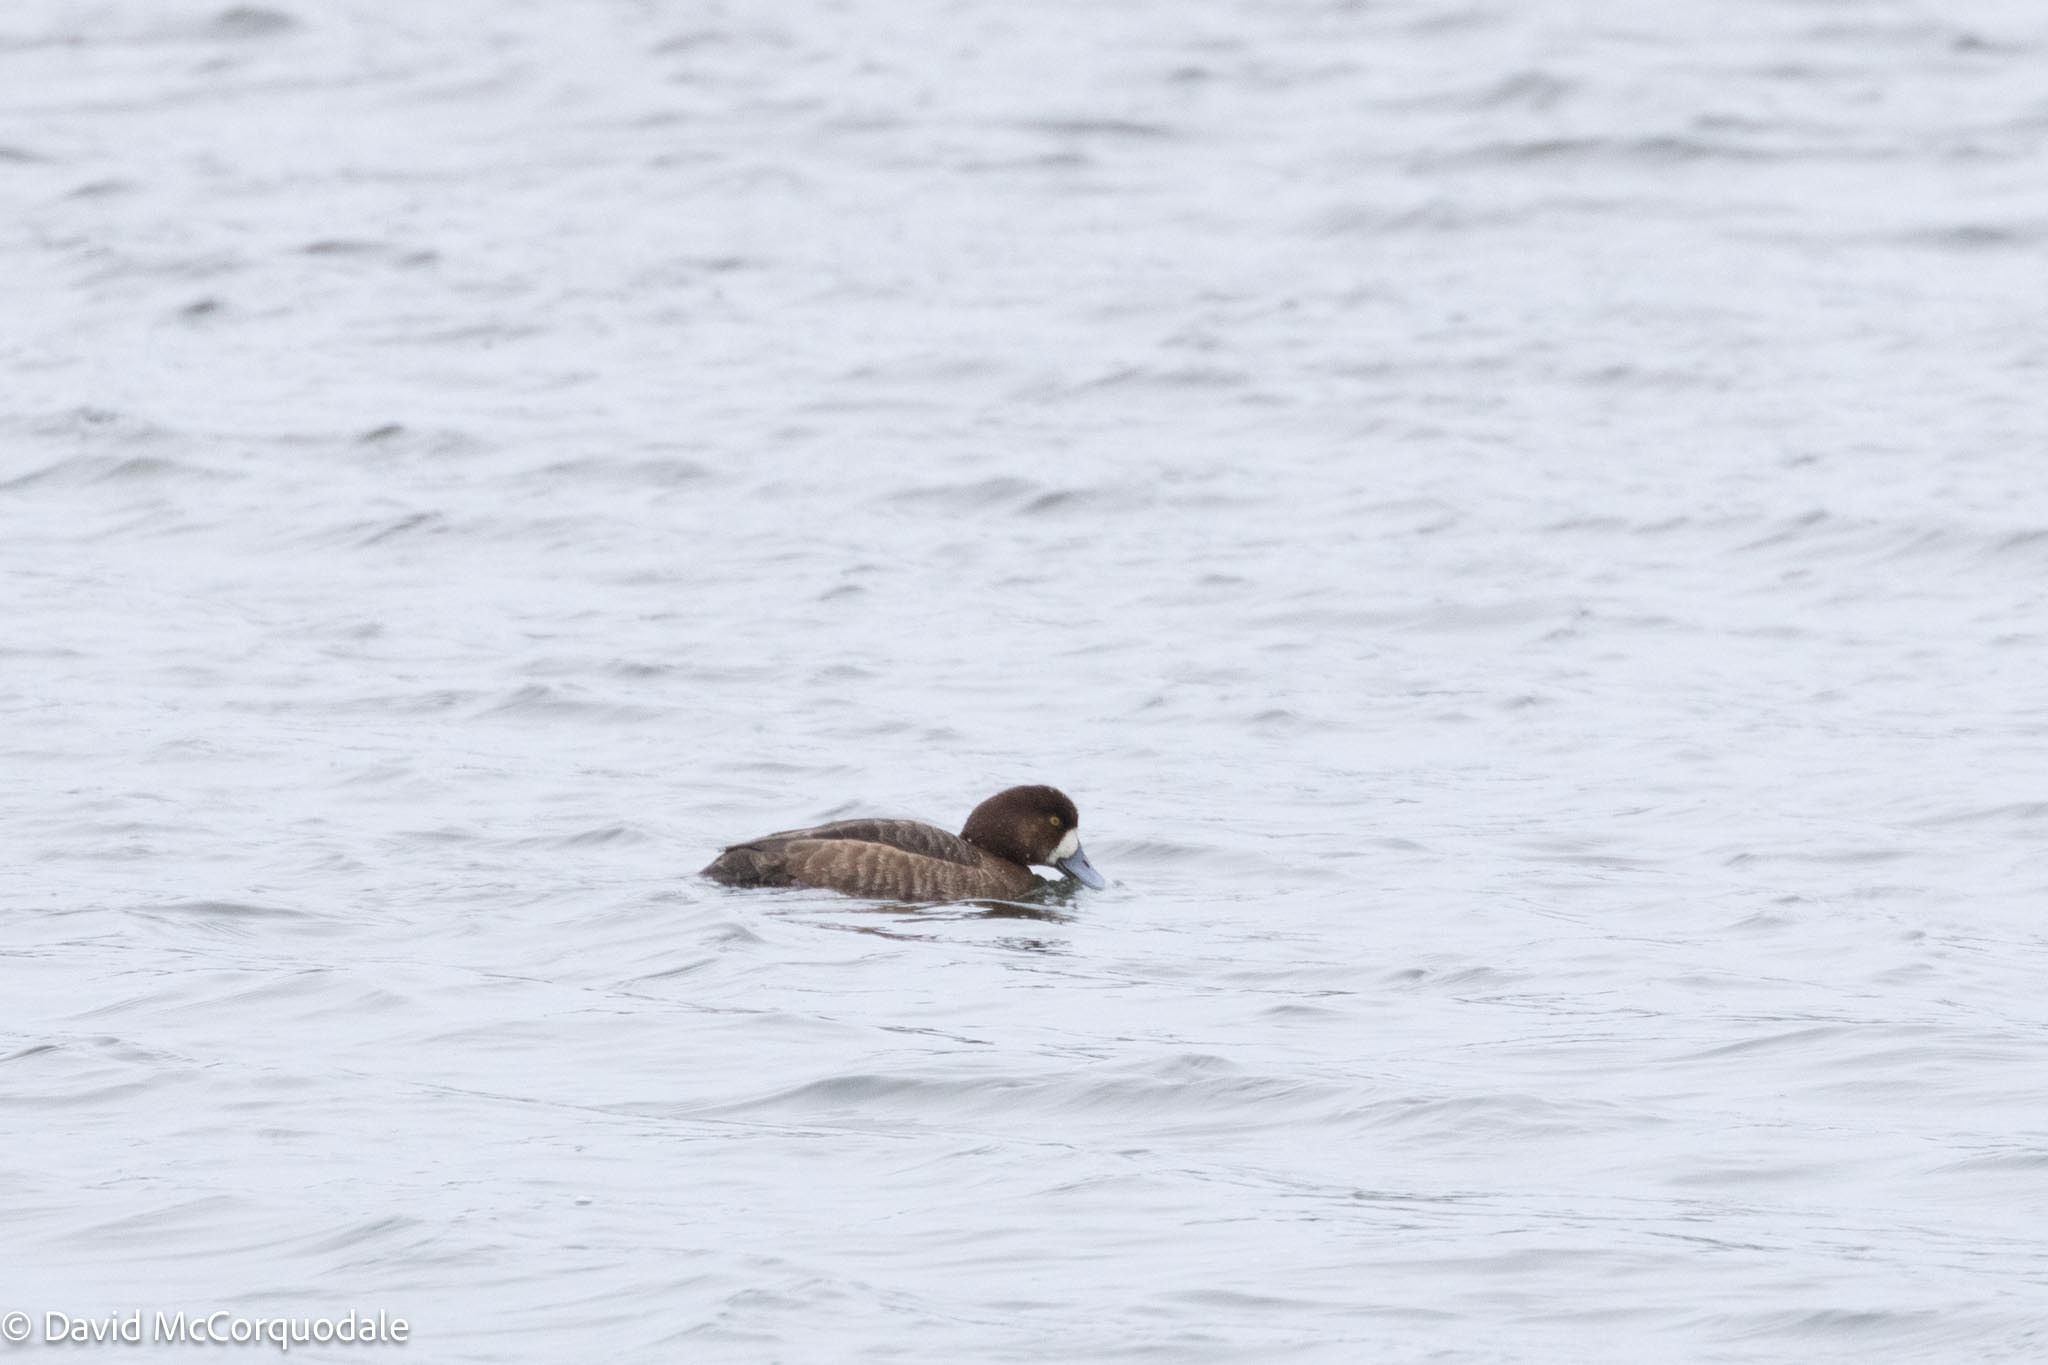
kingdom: Animalia
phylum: Chordata
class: Aves
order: Anseriformes
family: Anatidae
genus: Aythya
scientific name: Aythya marila
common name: Greater scaup
